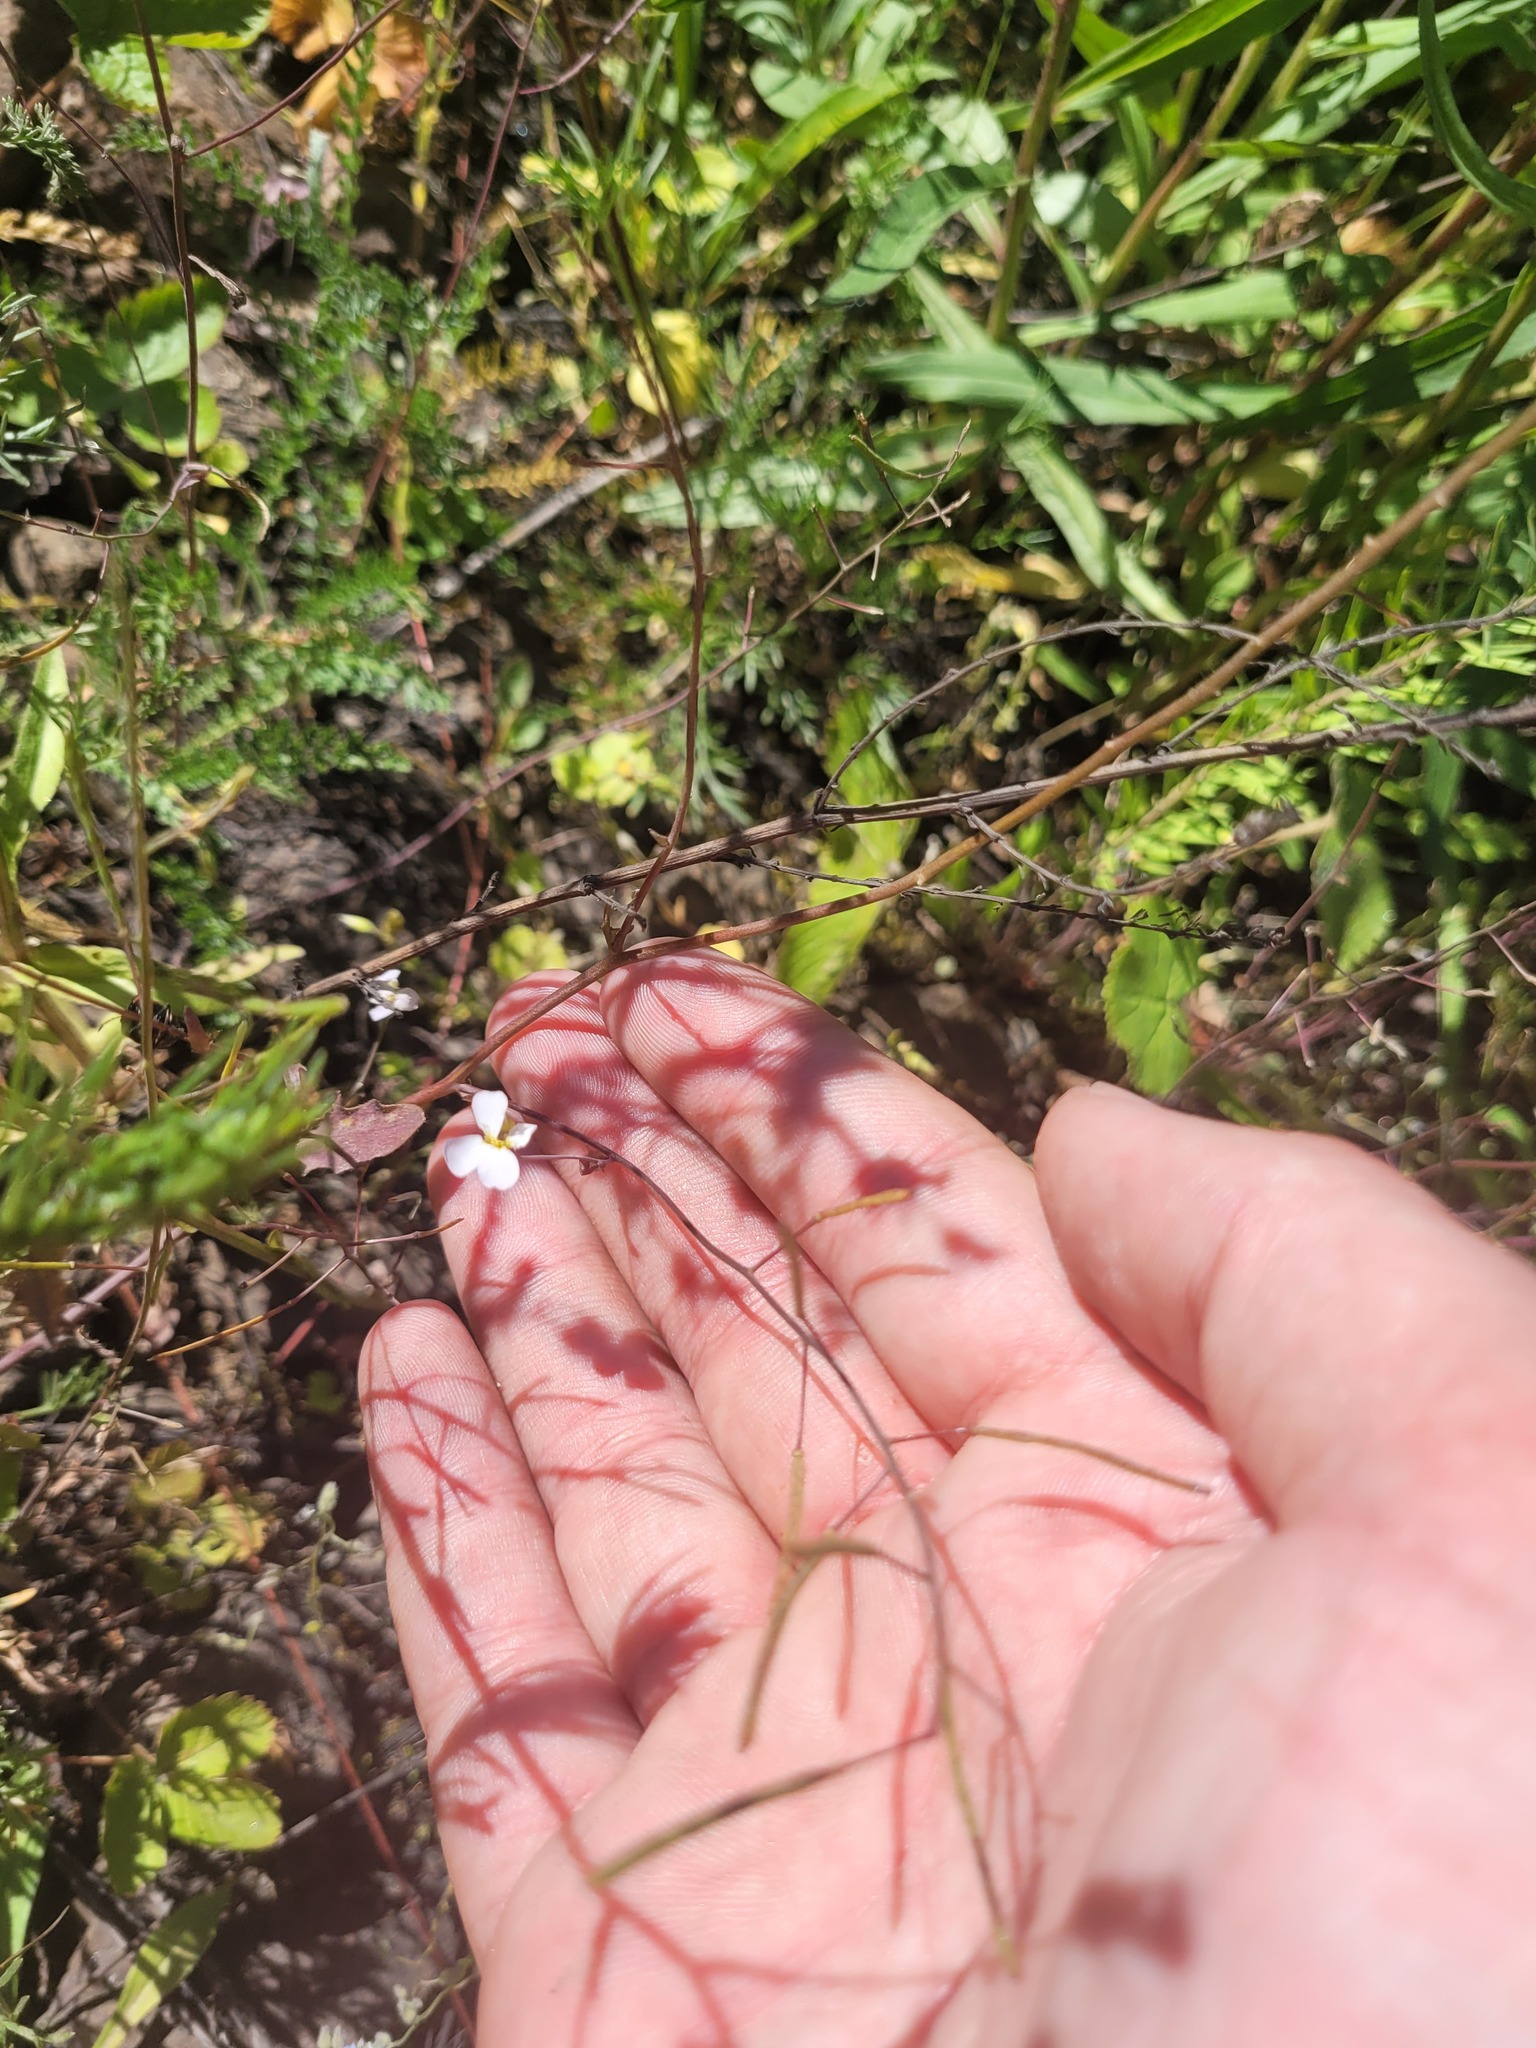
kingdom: Plantae
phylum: Tracheophyta
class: Magnoliopsida
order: Brassicales
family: Brassicaceae
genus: Arabidopsis
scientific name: Arabidopsis arenosa
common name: Sand rock-cress
